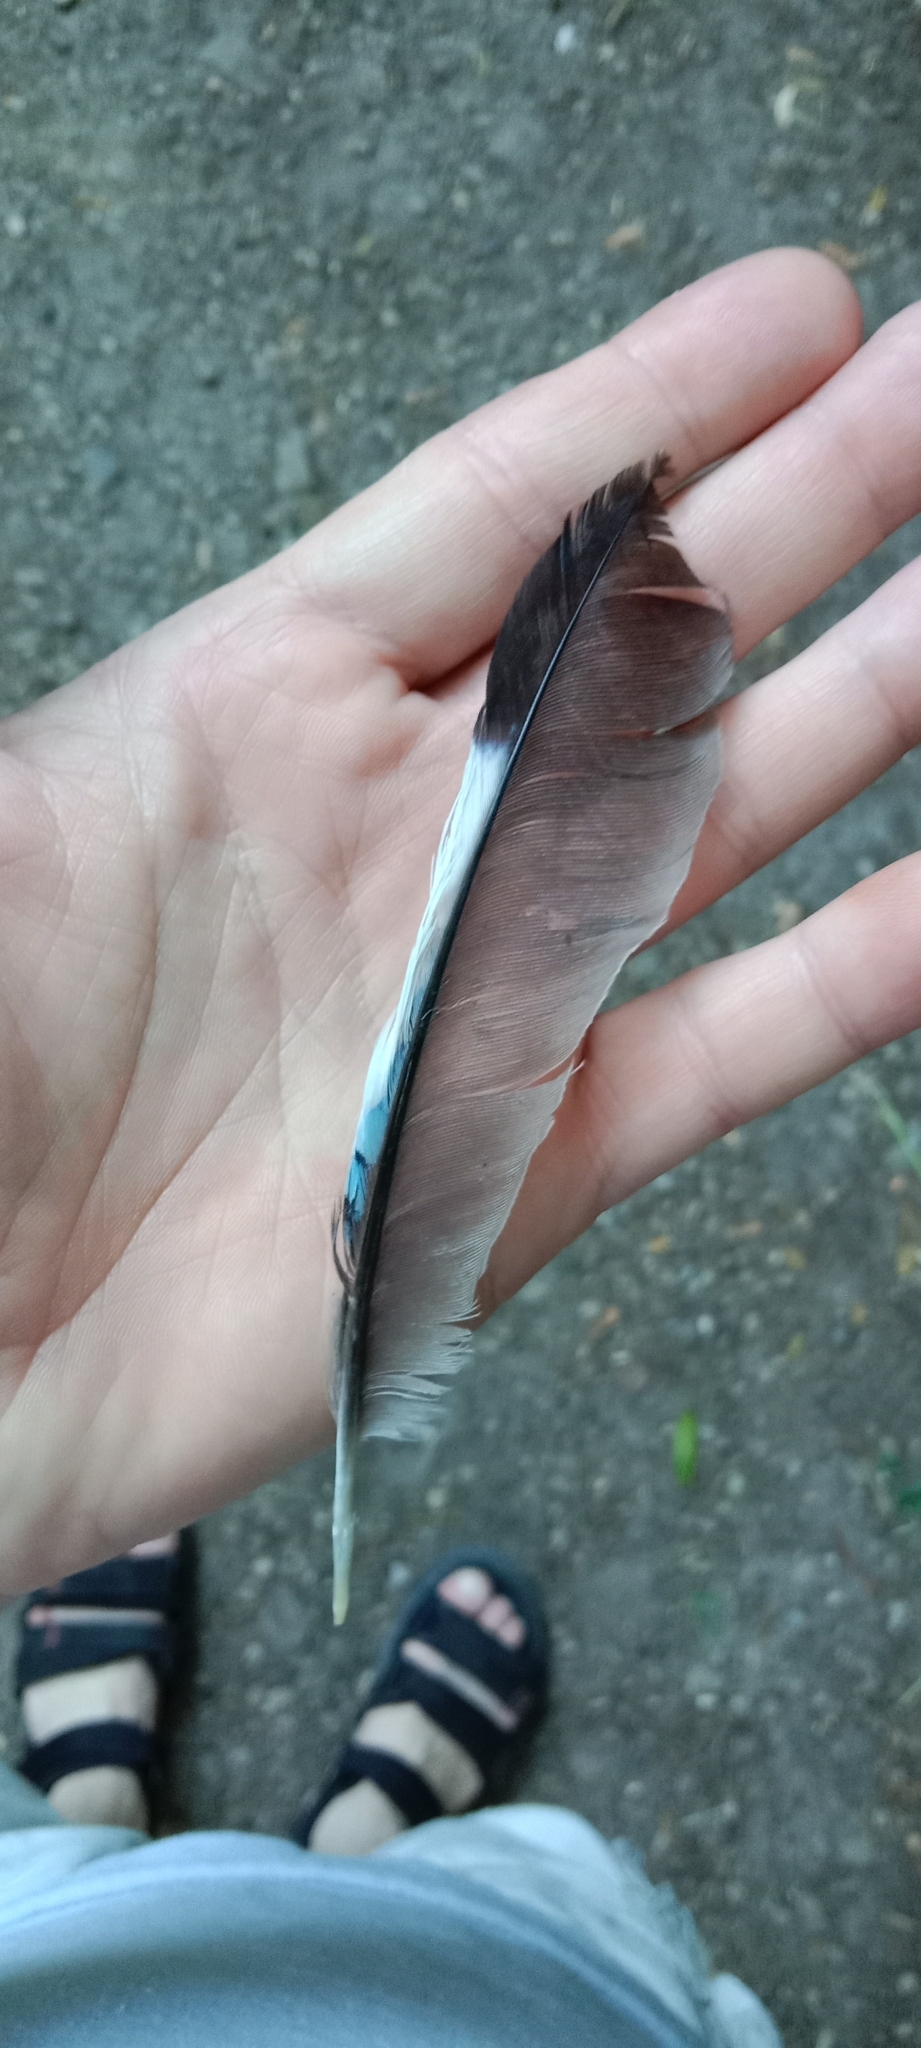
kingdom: Animalia
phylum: Chordata
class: Aves
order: Passeriformes
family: Corvidae
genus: Garrulus
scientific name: Garrulus glandarius
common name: Eurasian jay
